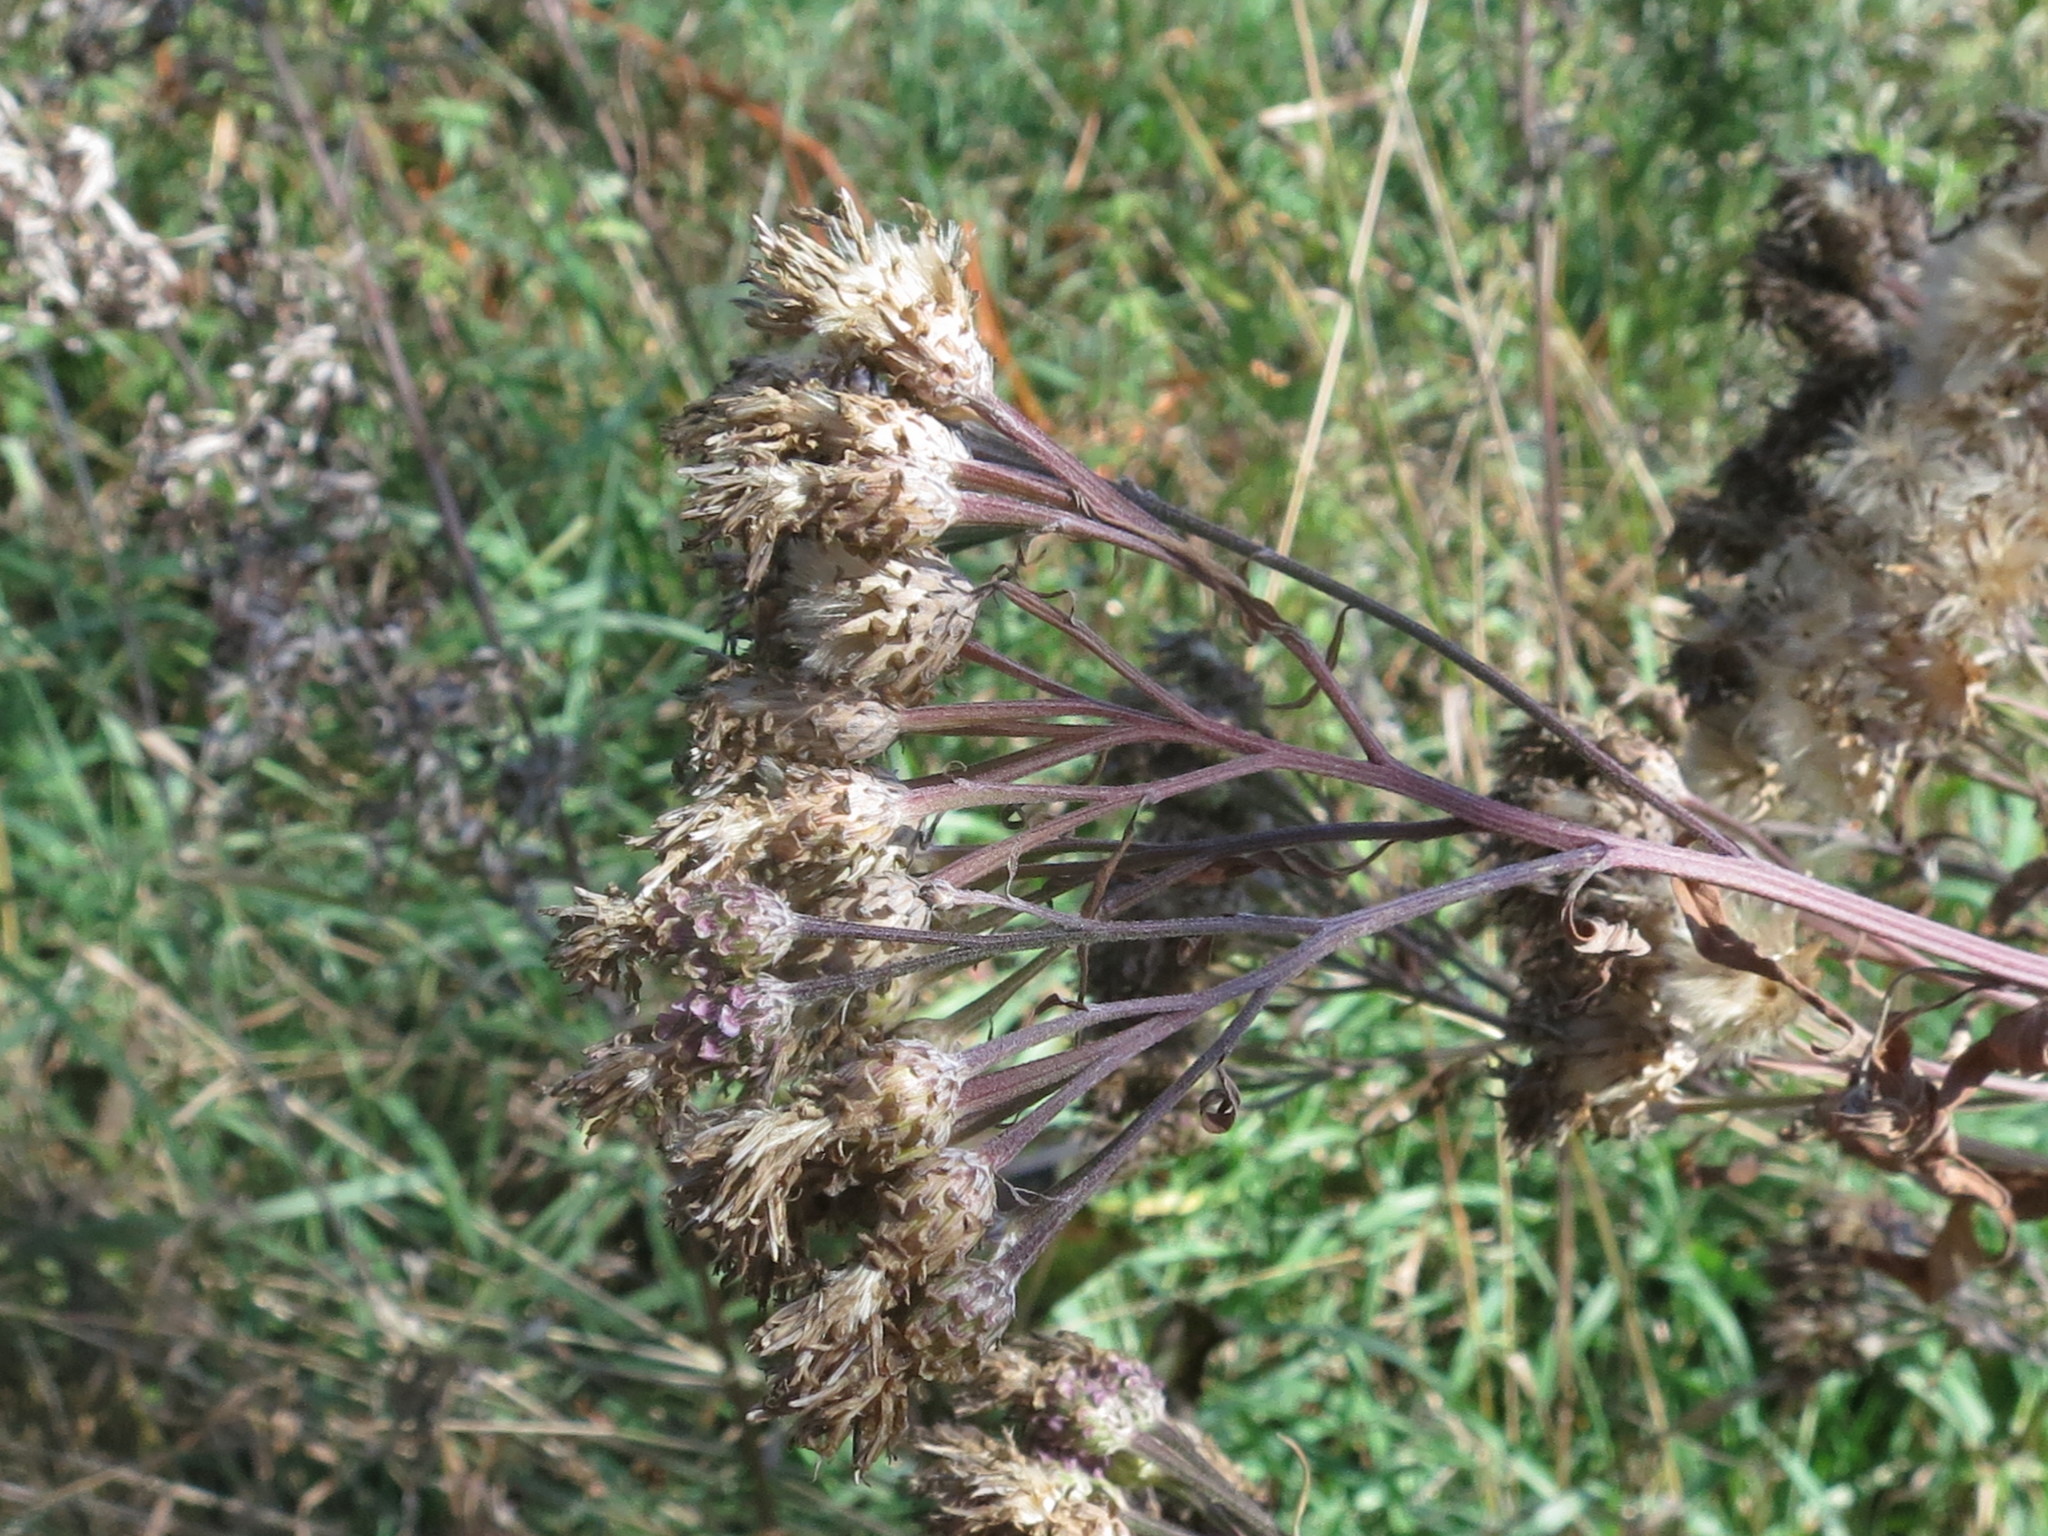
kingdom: Plantae
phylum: Tracheophyta
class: Magnoliopsida
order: Asterales
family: Asteraceae
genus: Saussurea
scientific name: Saussurea pulchella
